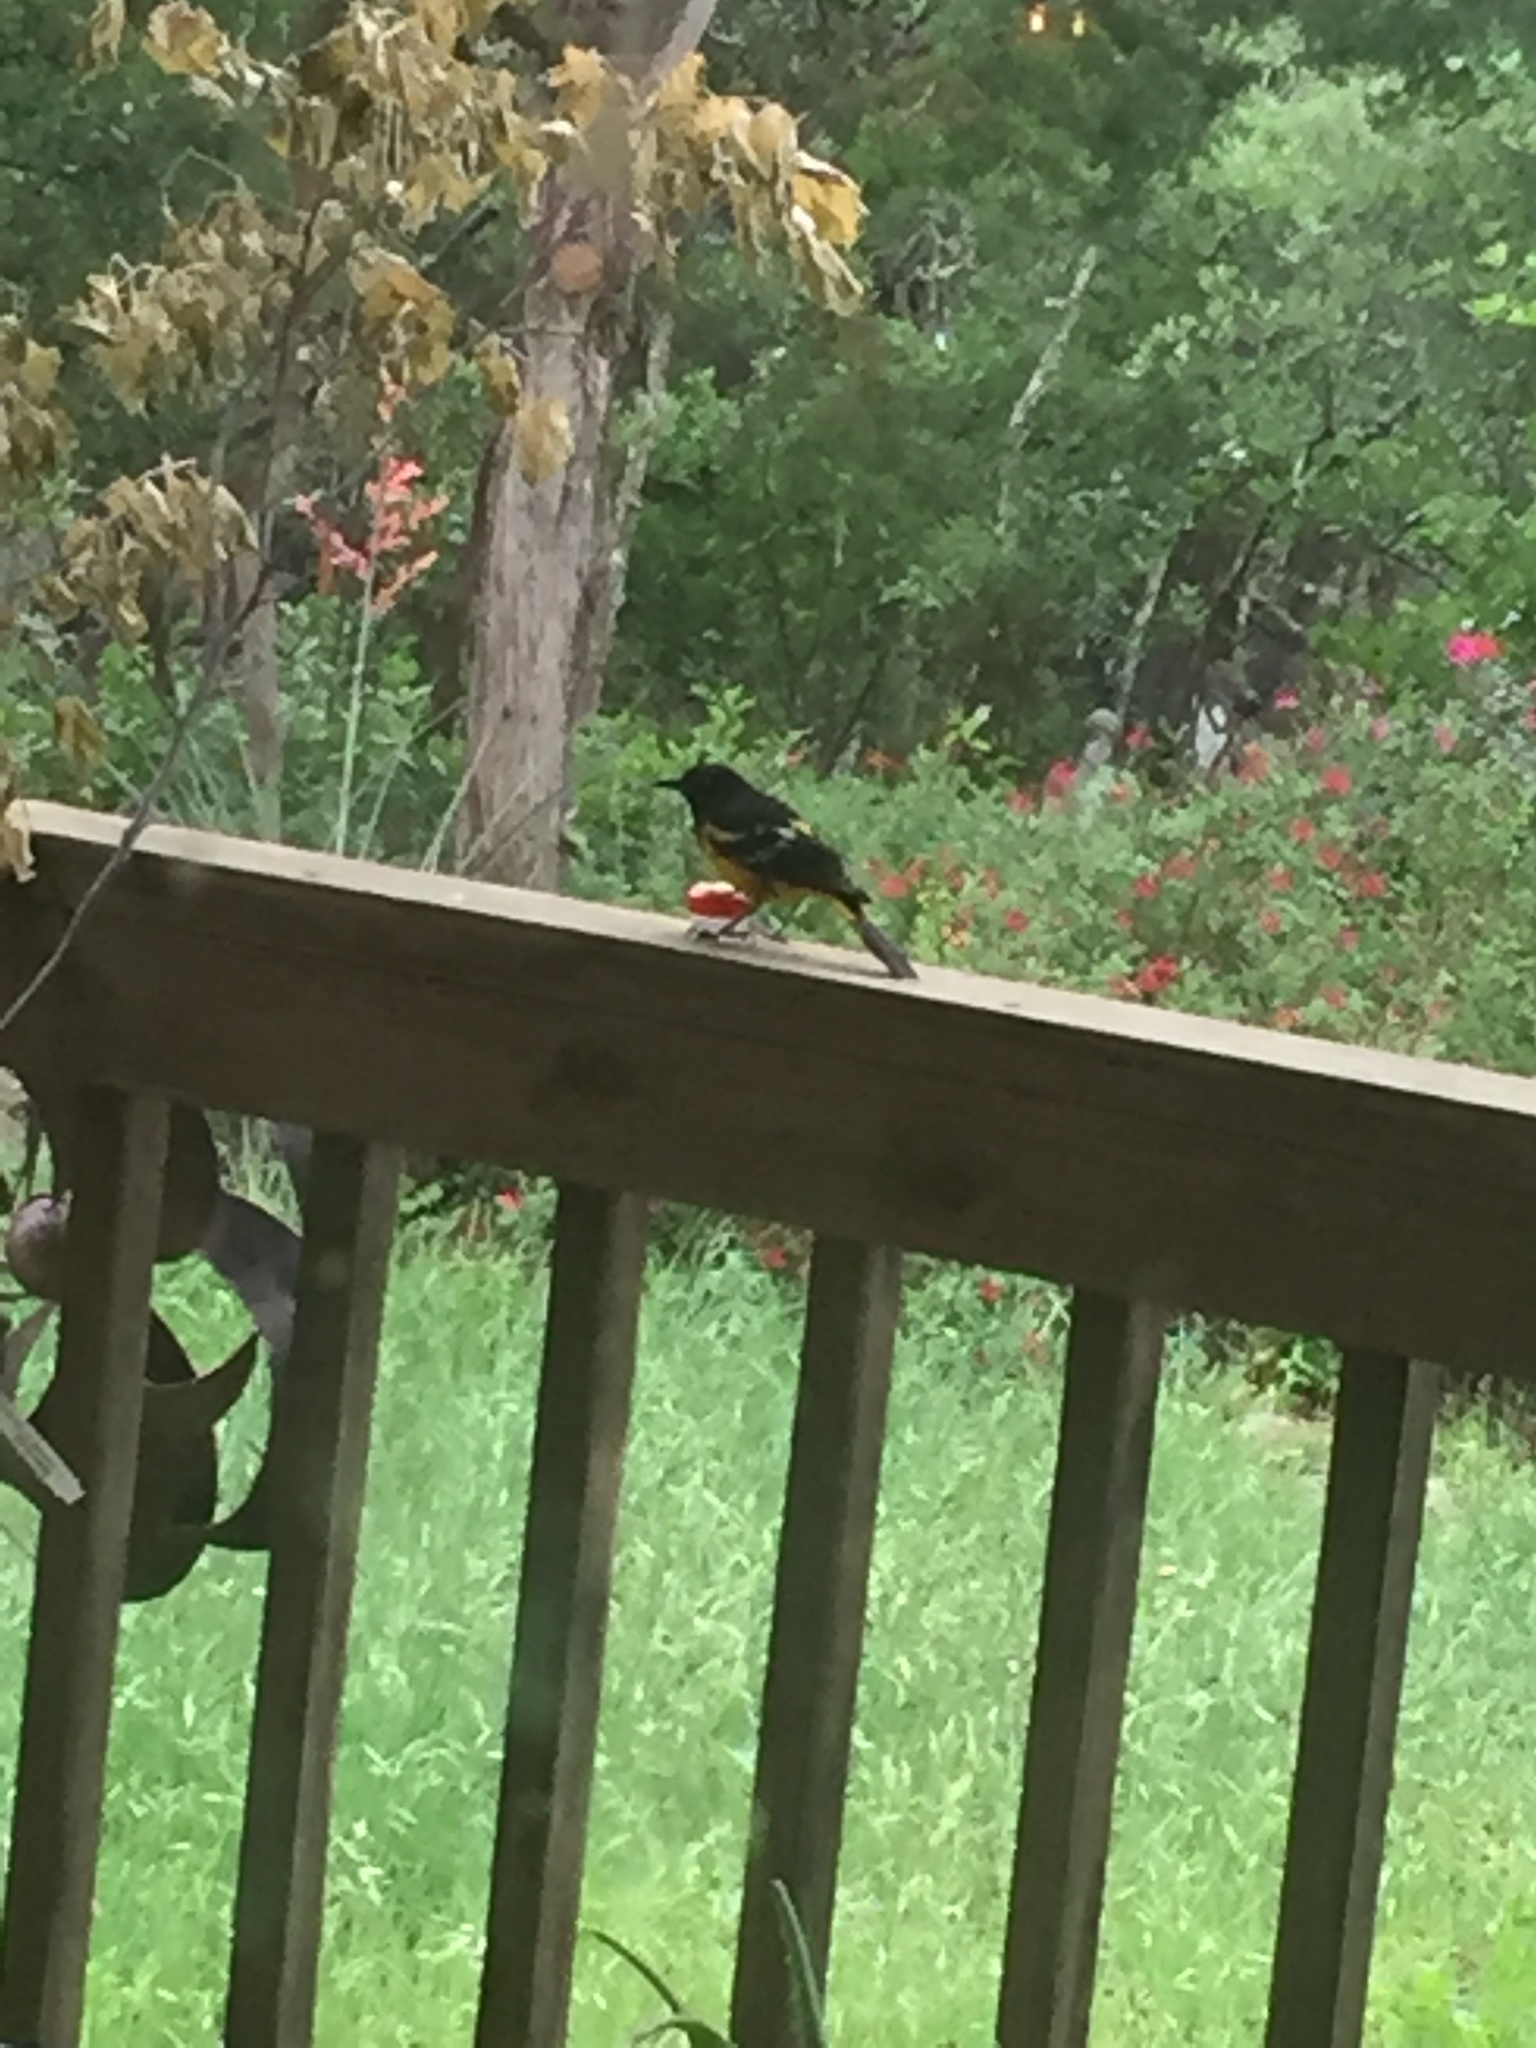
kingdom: Animalia
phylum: Chordata
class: Aves
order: Passeriformes
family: Icteridae
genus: Icterus
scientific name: Icterus parisorum
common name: Scott's oriole
